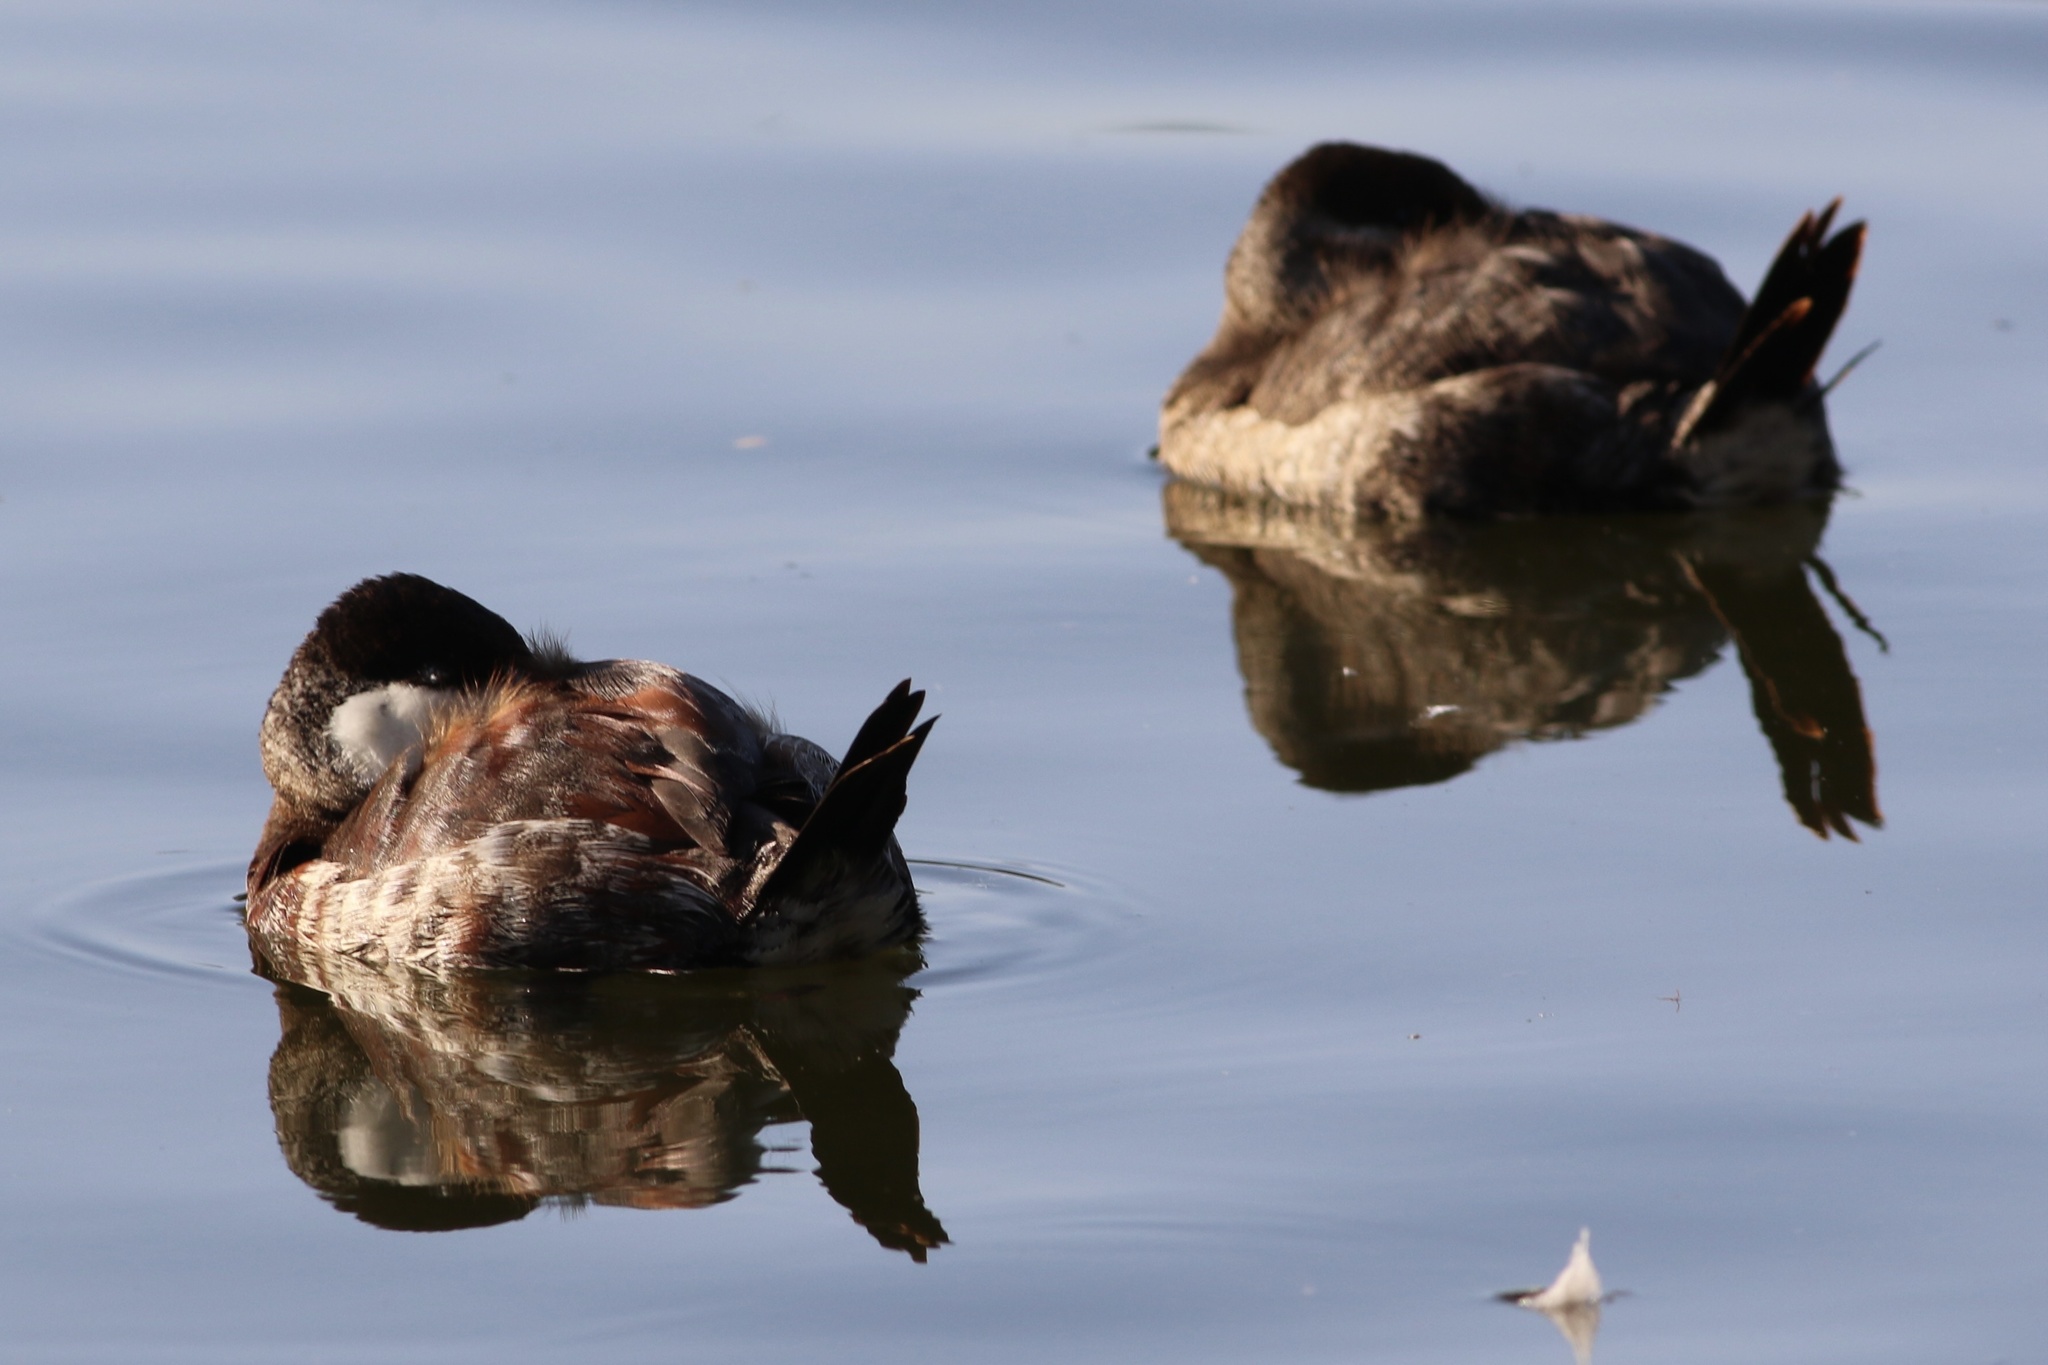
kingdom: Animalia
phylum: Chordata
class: Aves
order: Anseriformes
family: Anatidae
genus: Oxyura
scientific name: Oxyura jamaicensis
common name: Ruddy duck
